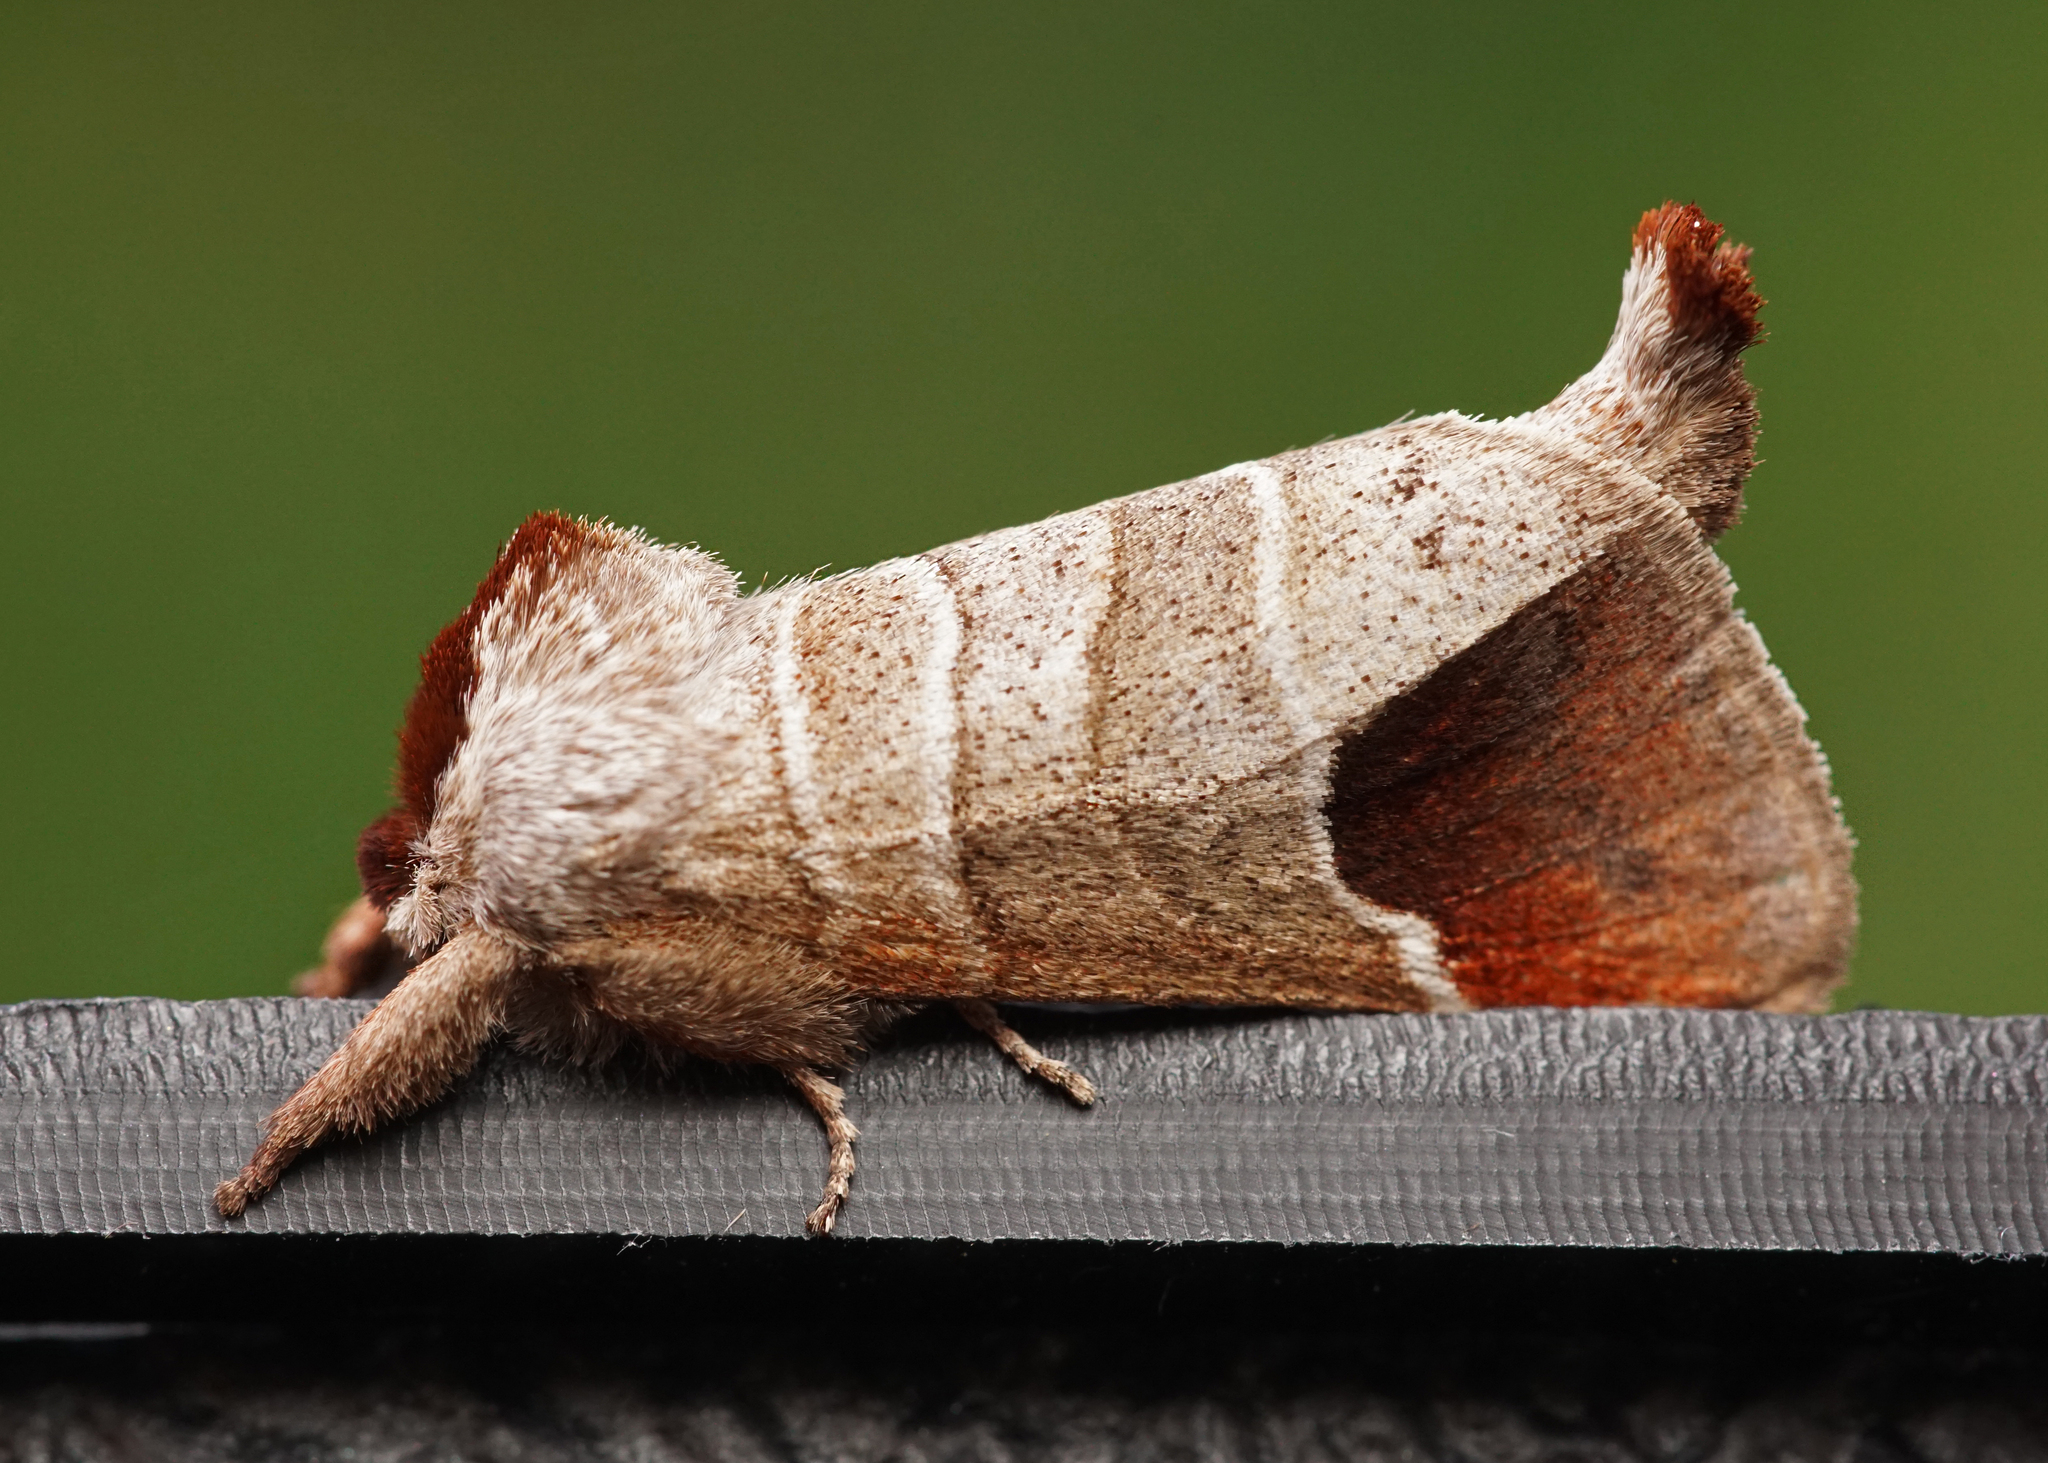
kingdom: Animalia
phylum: Arthropoda
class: Insecta
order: Lepidoptera
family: Notodontidae
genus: Clostera
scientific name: Clostera curtula
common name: Chocolate-tip
